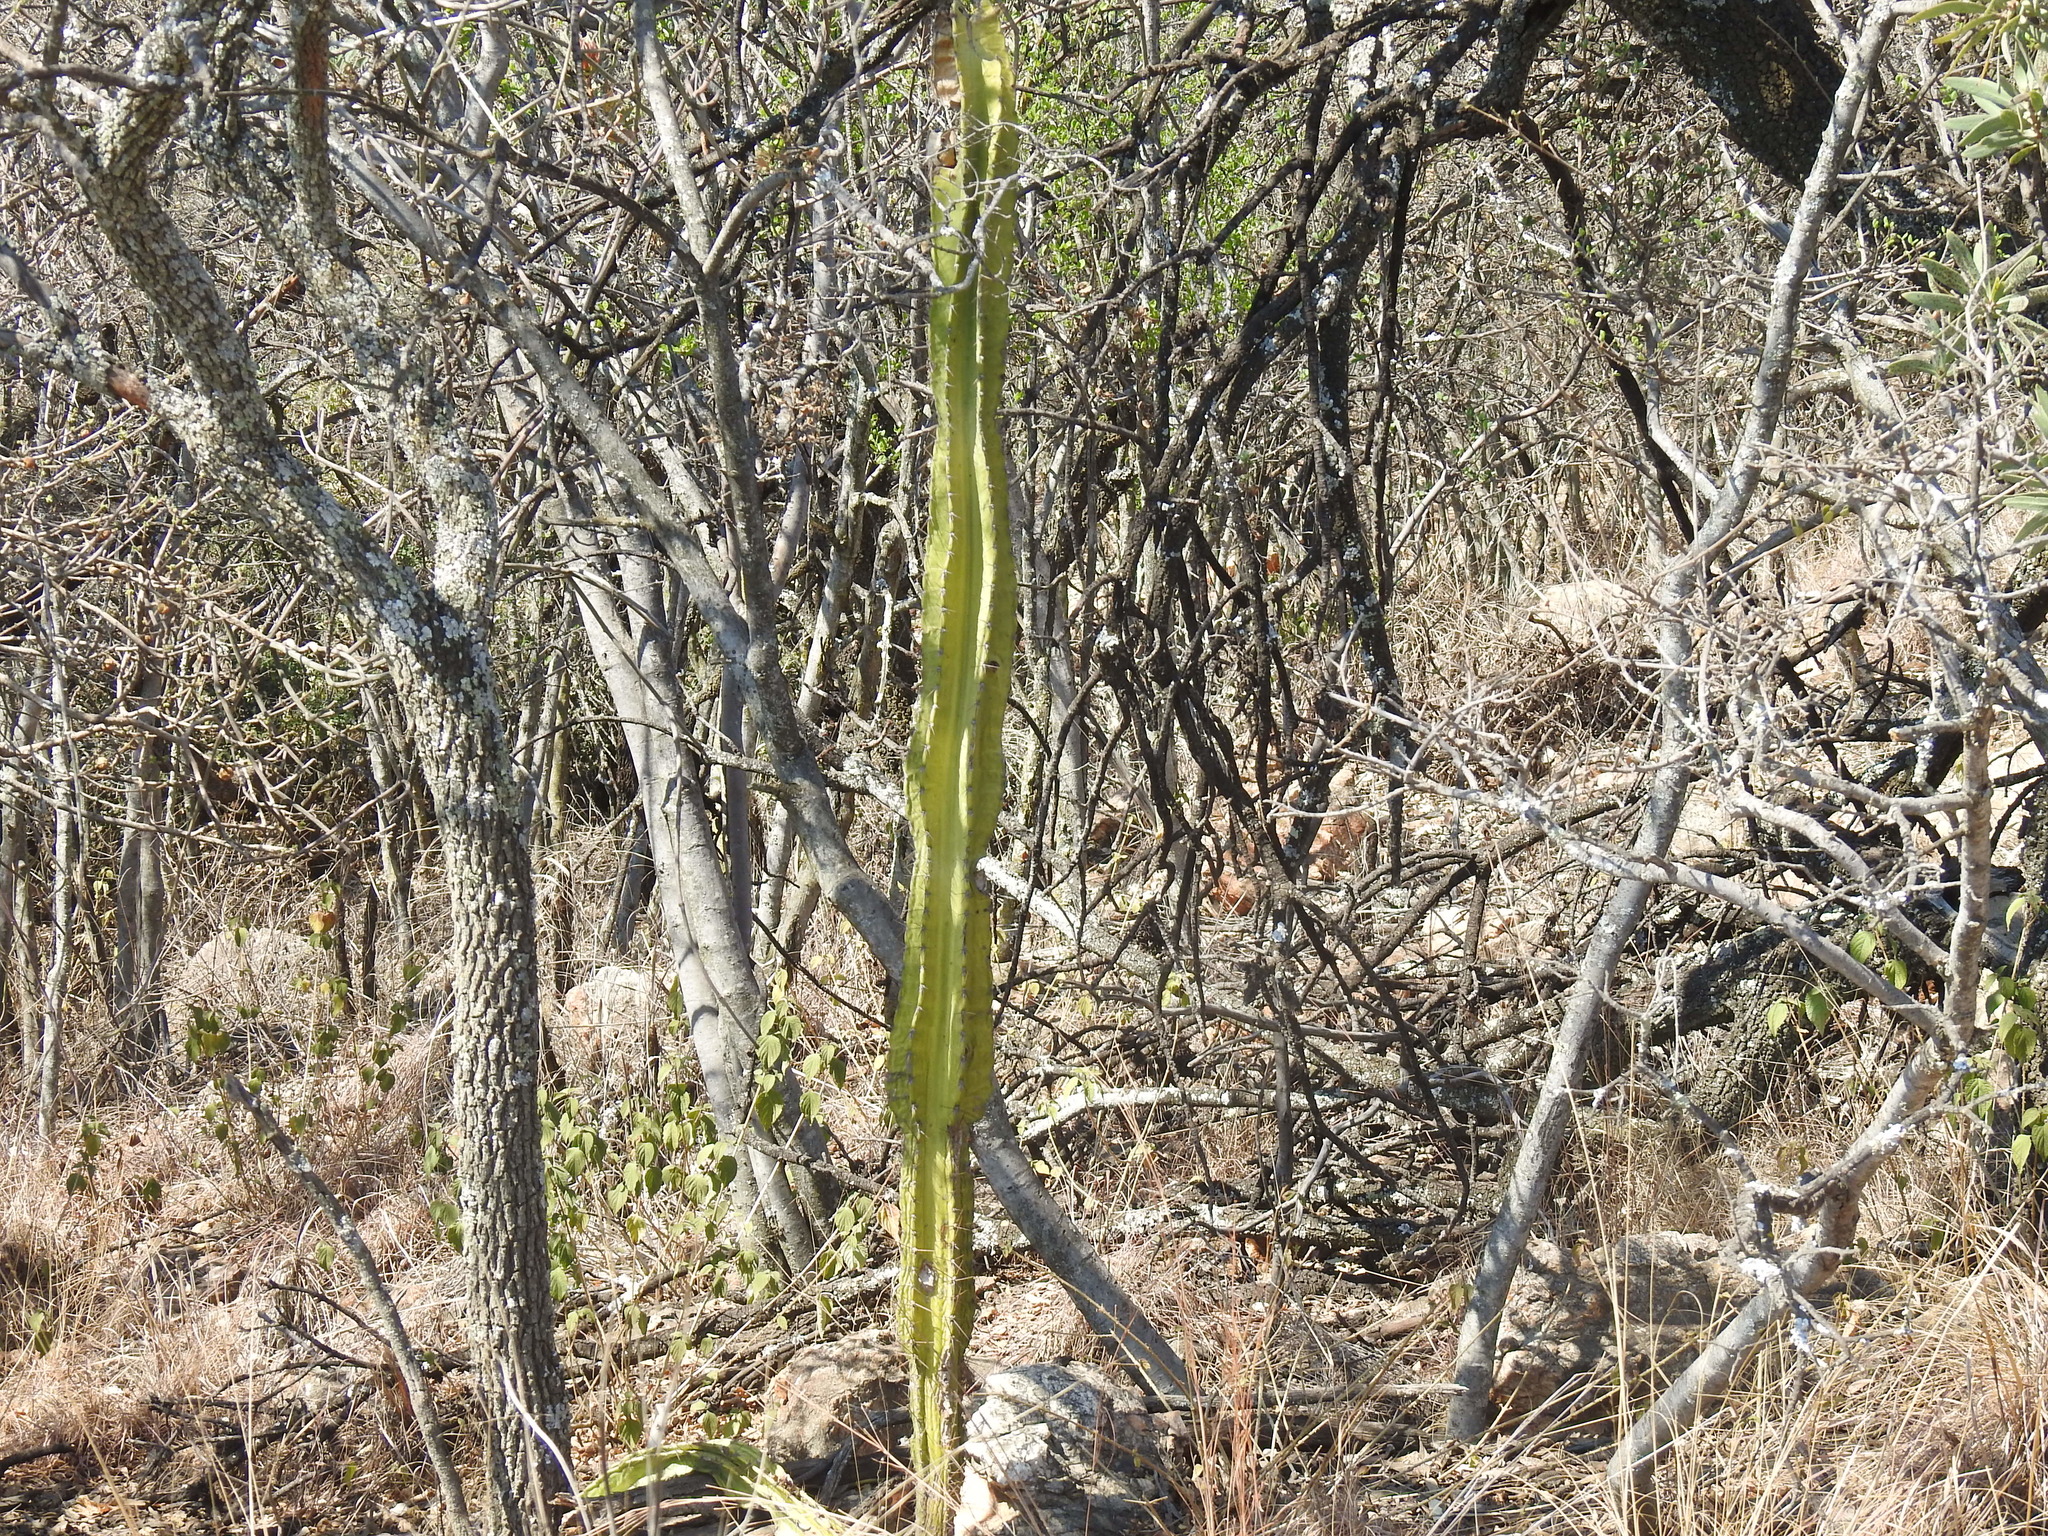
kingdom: Plantae
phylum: Tracheophyta
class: Magnoliopsida
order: Caryophyllales
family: Cactaceae
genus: Cereus
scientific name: Cereus jamacaru
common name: Queen-of-the-night
